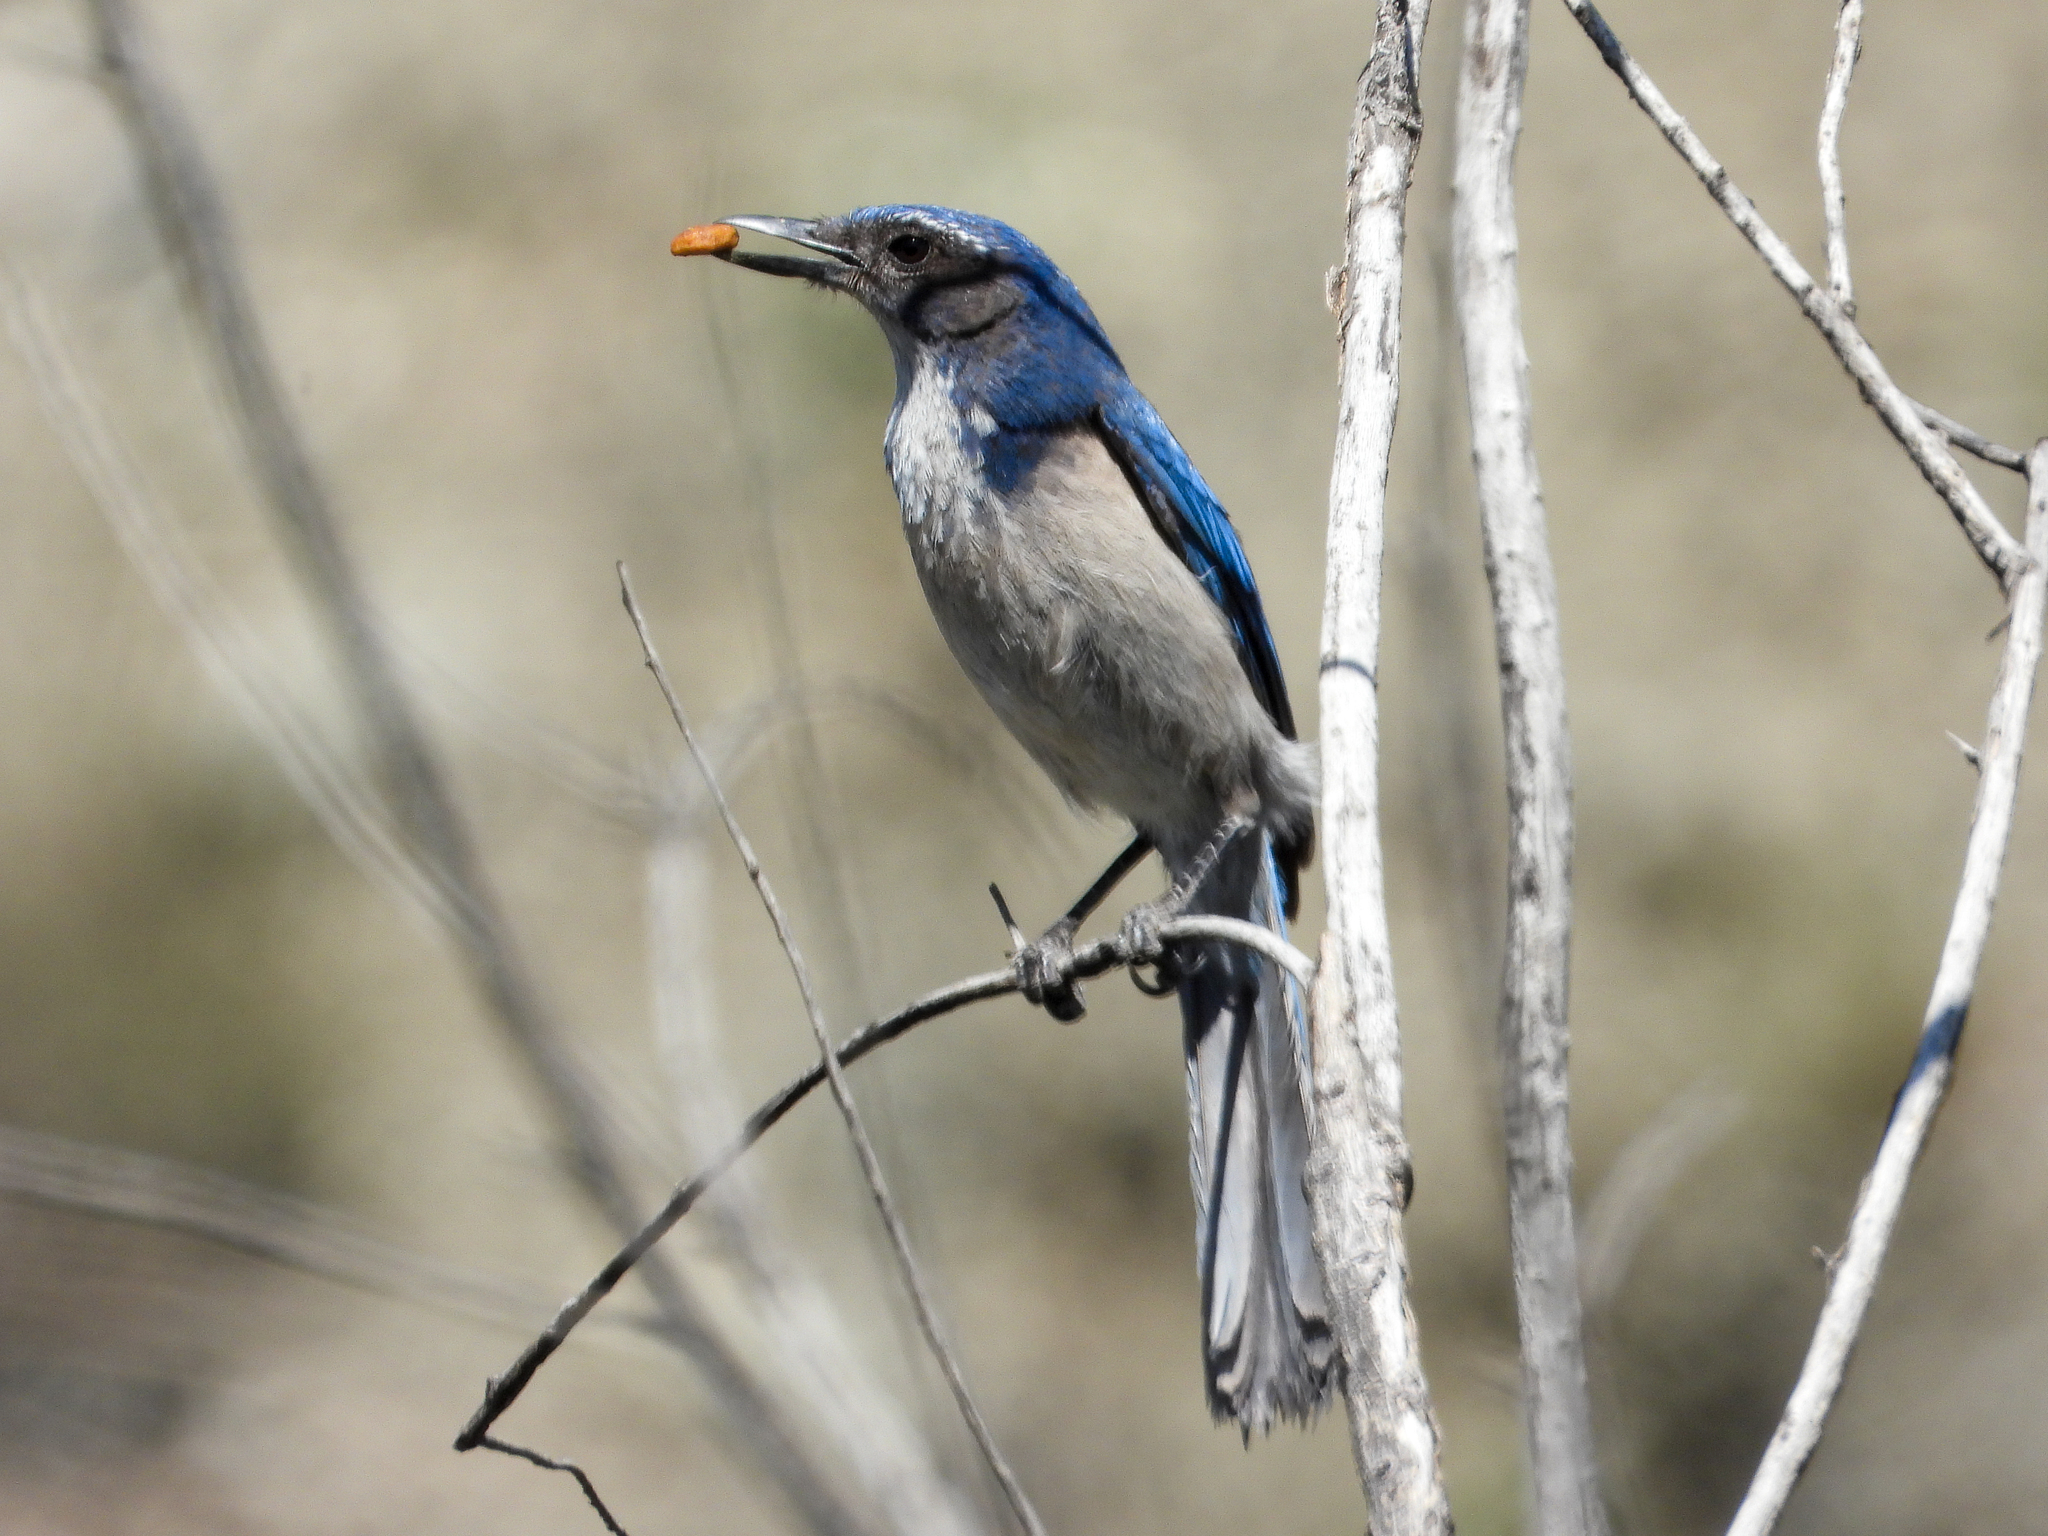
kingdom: Animalia
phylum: Chordata
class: Aves
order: Passeriformes
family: Corvidae
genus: Aphelocoma
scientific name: Aphelocoma californica
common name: California scrub-jay
